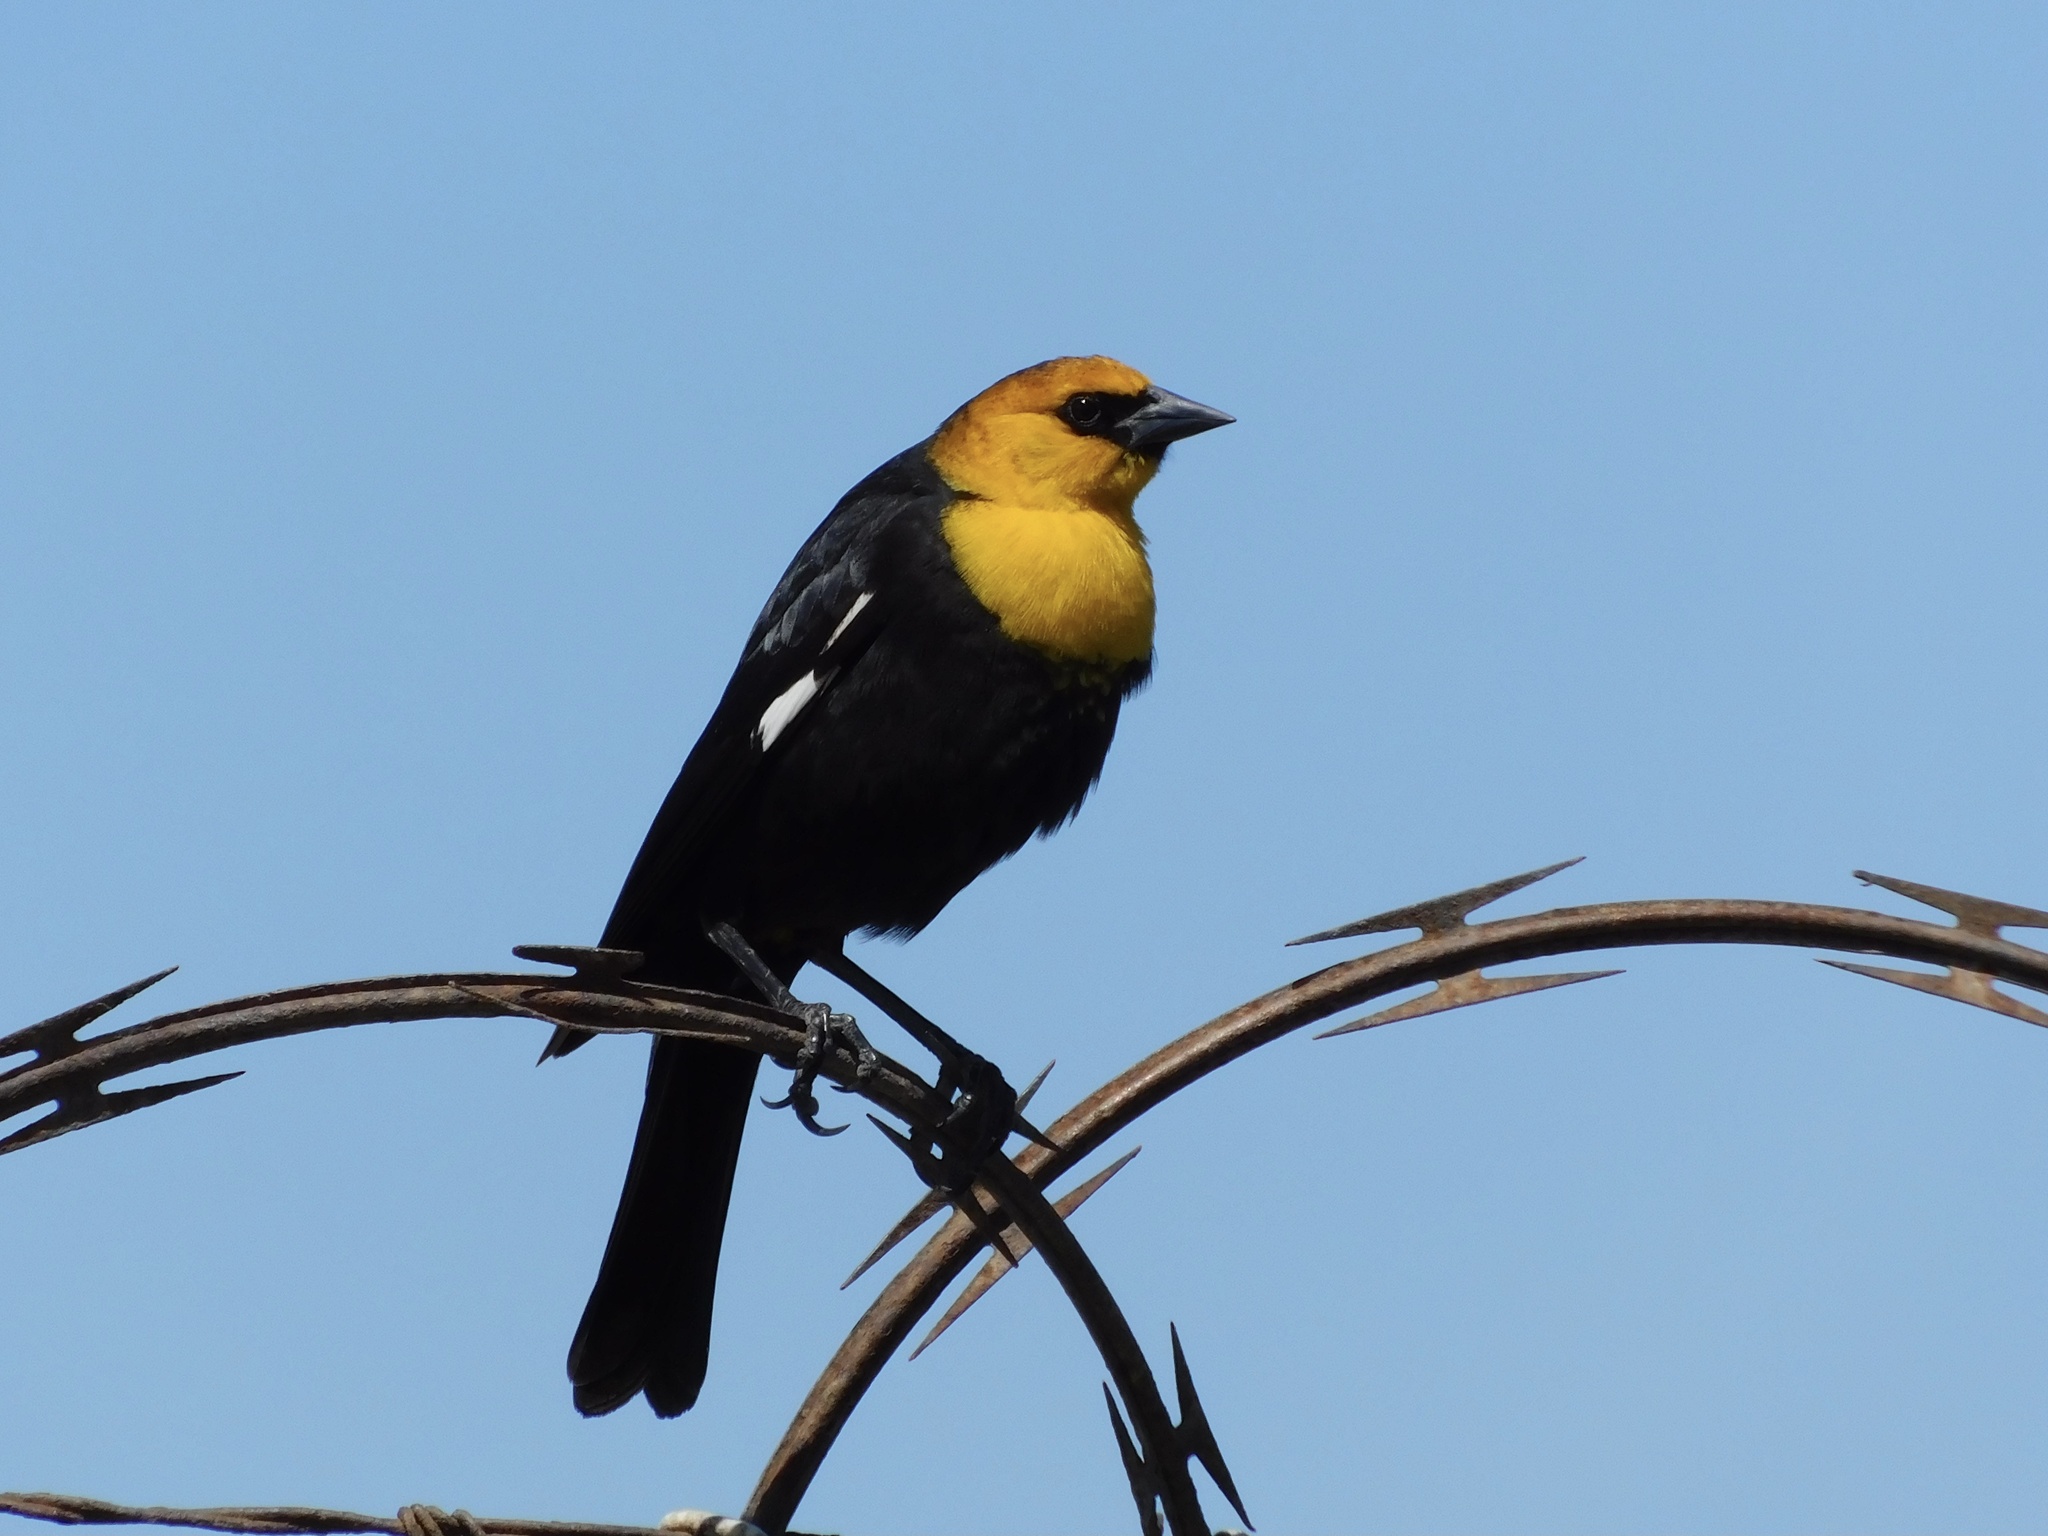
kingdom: Animalia
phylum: Chordata
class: Aves
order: Passeriformes
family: Icteridae
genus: Xanthocephalus
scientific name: Xanthocephalus xanthocephalus
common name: Yellow-headed blackbird
